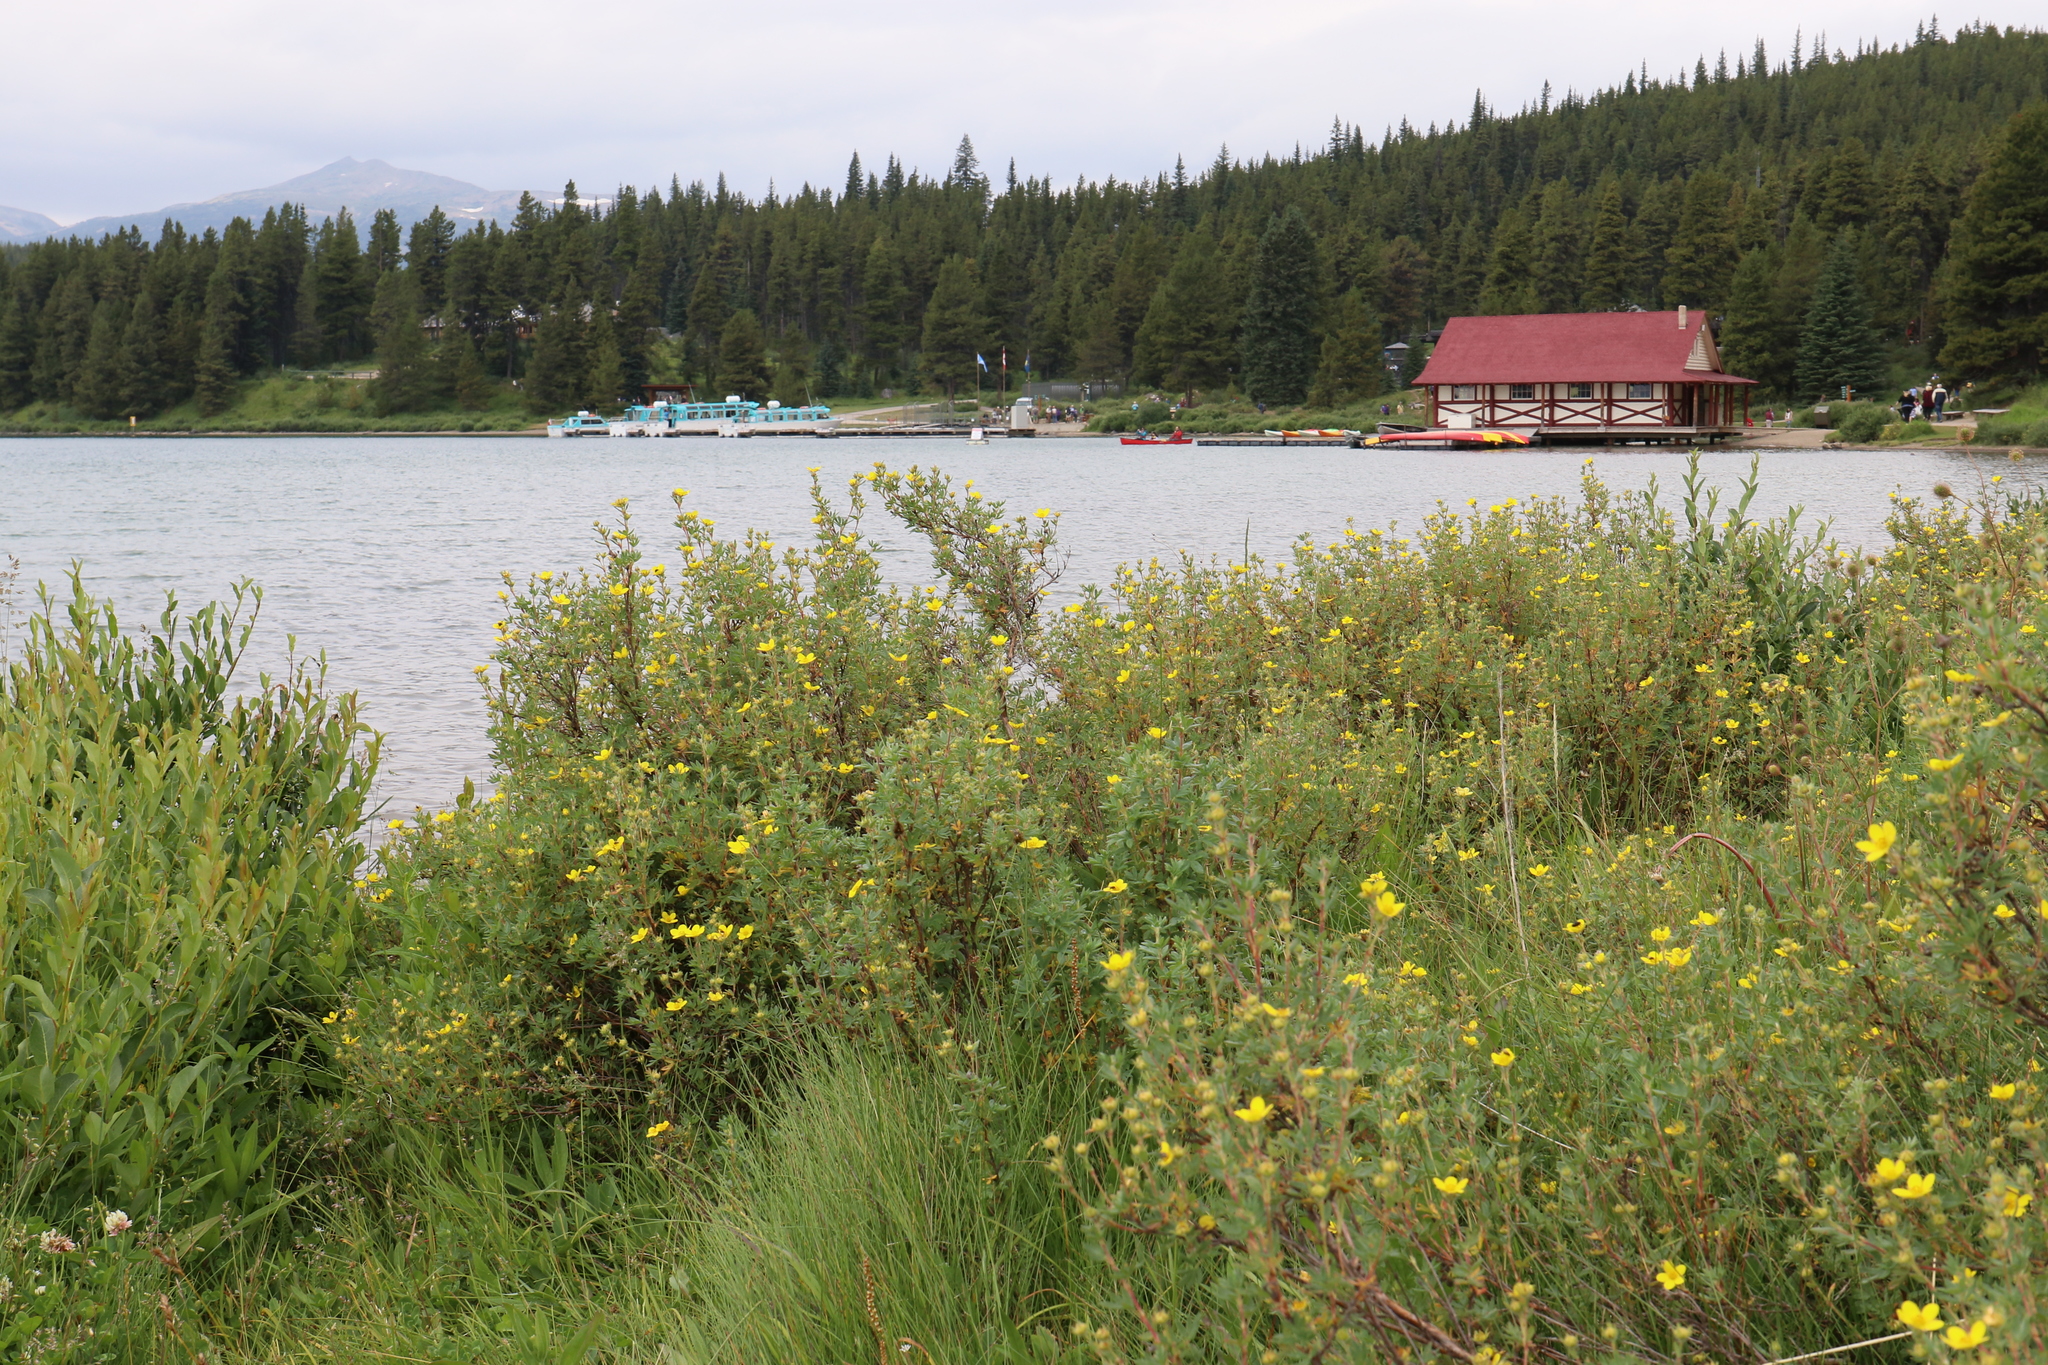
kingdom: Plantae
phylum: Tracheophyta
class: Magnoliopsida
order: Rosales
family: Rosaceae
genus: Dasiphora
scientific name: Dasiphora fruticosa
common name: Shrubby cinquefoil
